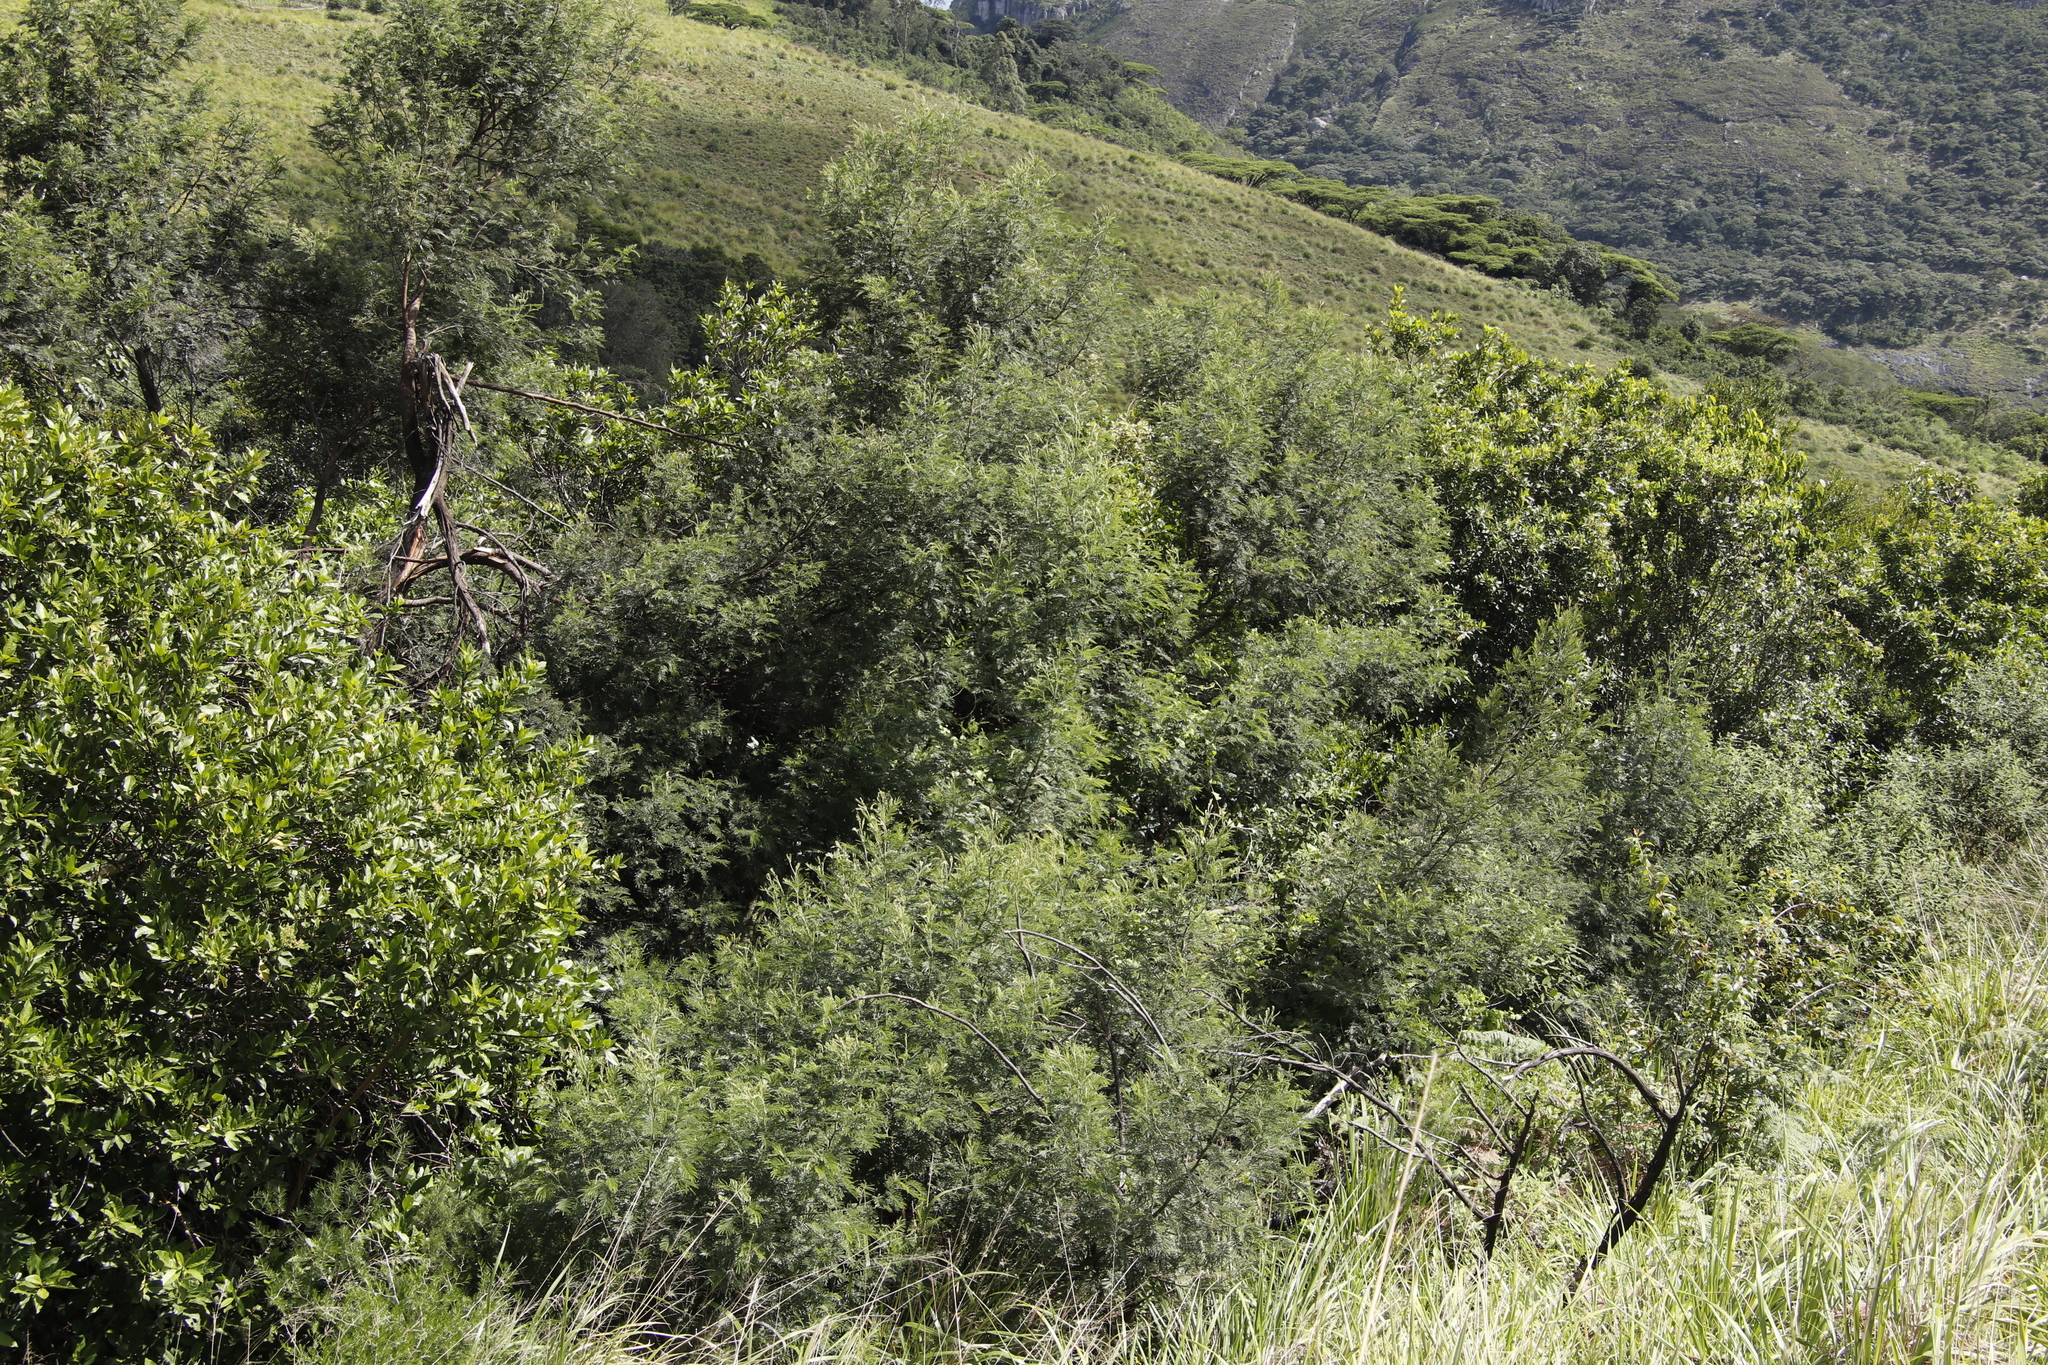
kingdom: Plantae
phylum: Tracheophyta
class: Magnoliopsida
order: Fabales
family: Fabaceae
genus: Acacia
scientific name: Acacia mearnsii
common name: Black wattle
